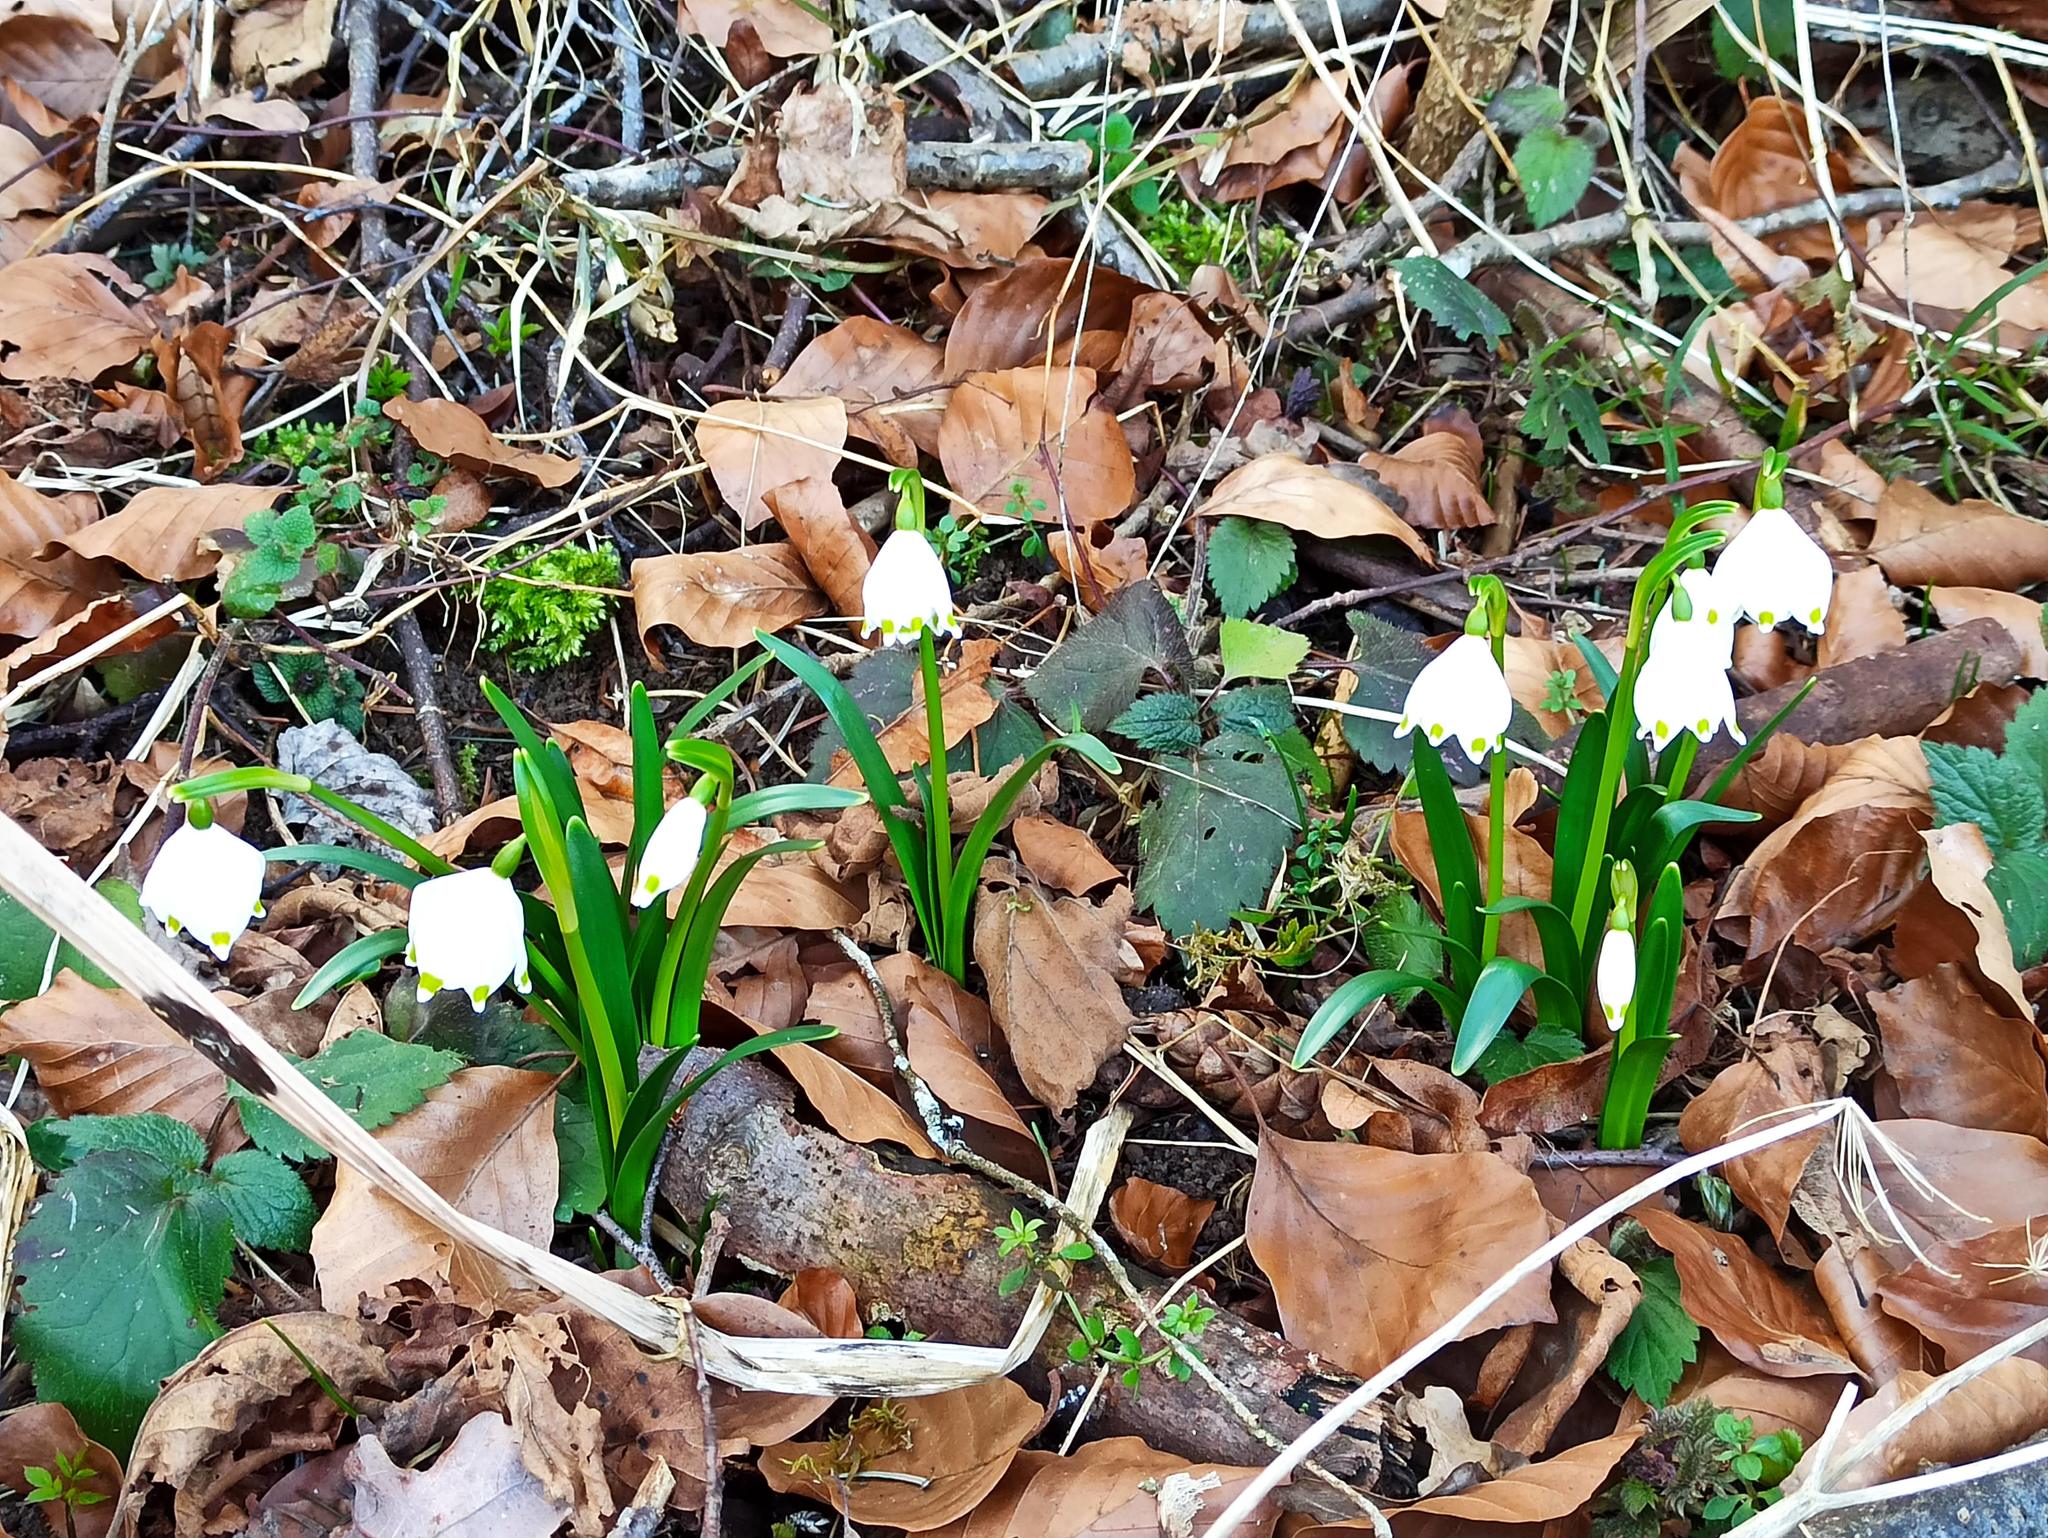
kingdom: Plantae
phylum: Tracheophyta
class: Liliopsida
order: Asparagales
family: Amaryllidaceae
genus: Leucojum
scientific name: Leucojum vernum
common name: Spring snowflake
